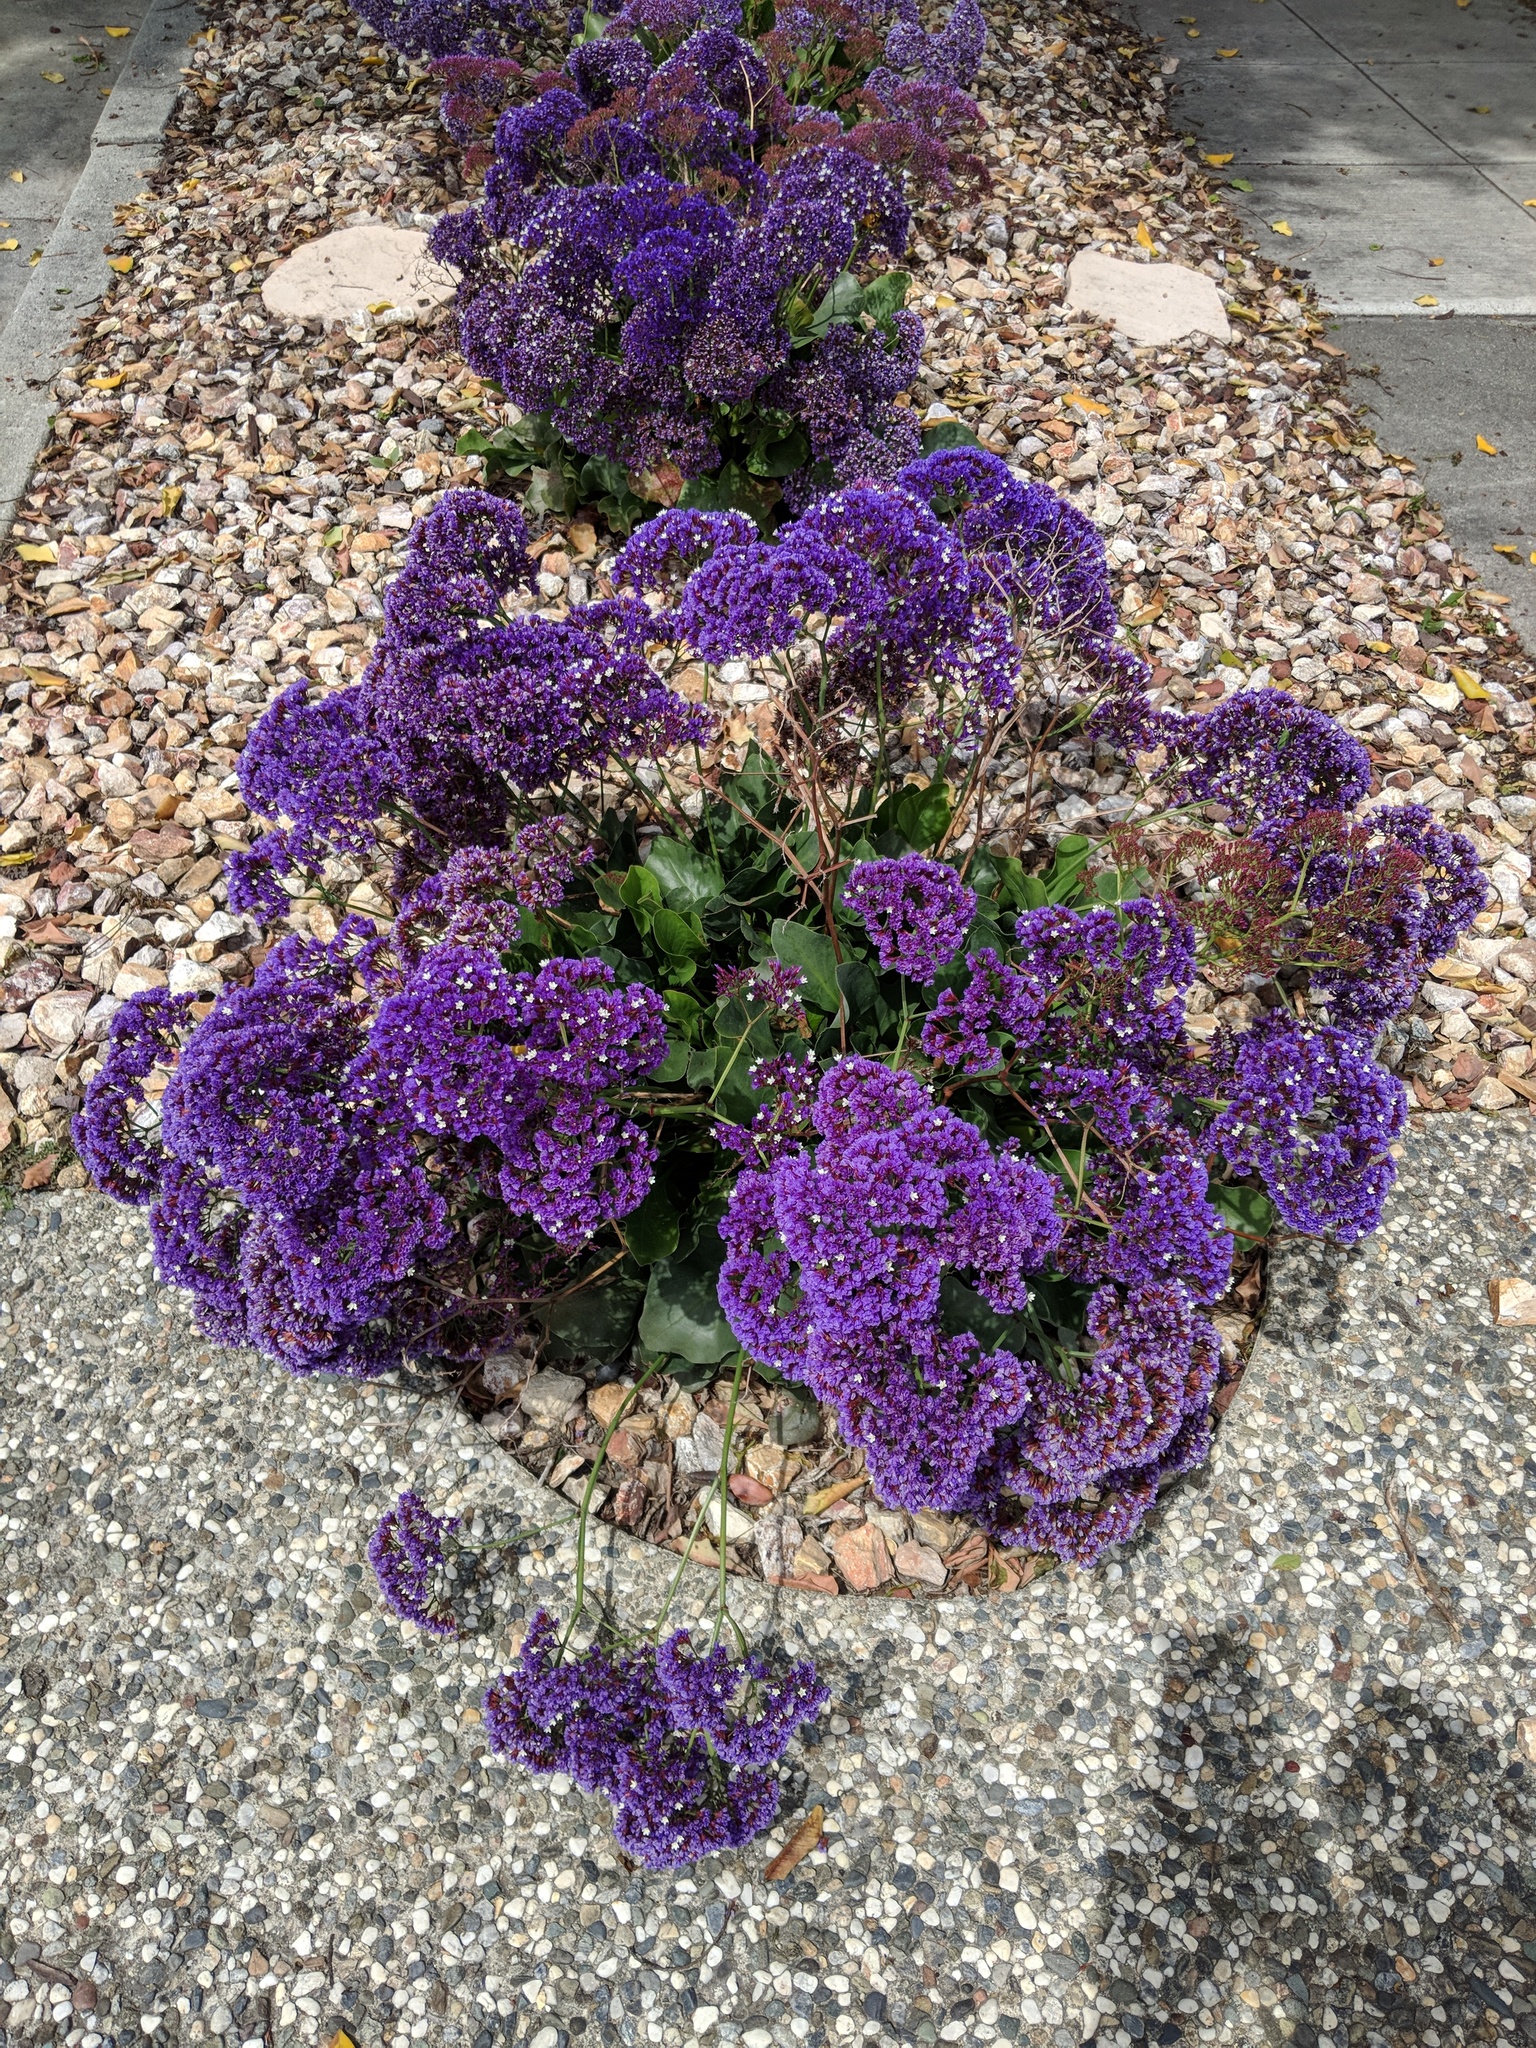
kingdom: Plantae
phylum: Tracheophyta
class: Magnoliopsida
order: Caryophyllales
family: Plumbaginaceae
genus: Limonium
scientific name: Limonium perezii
